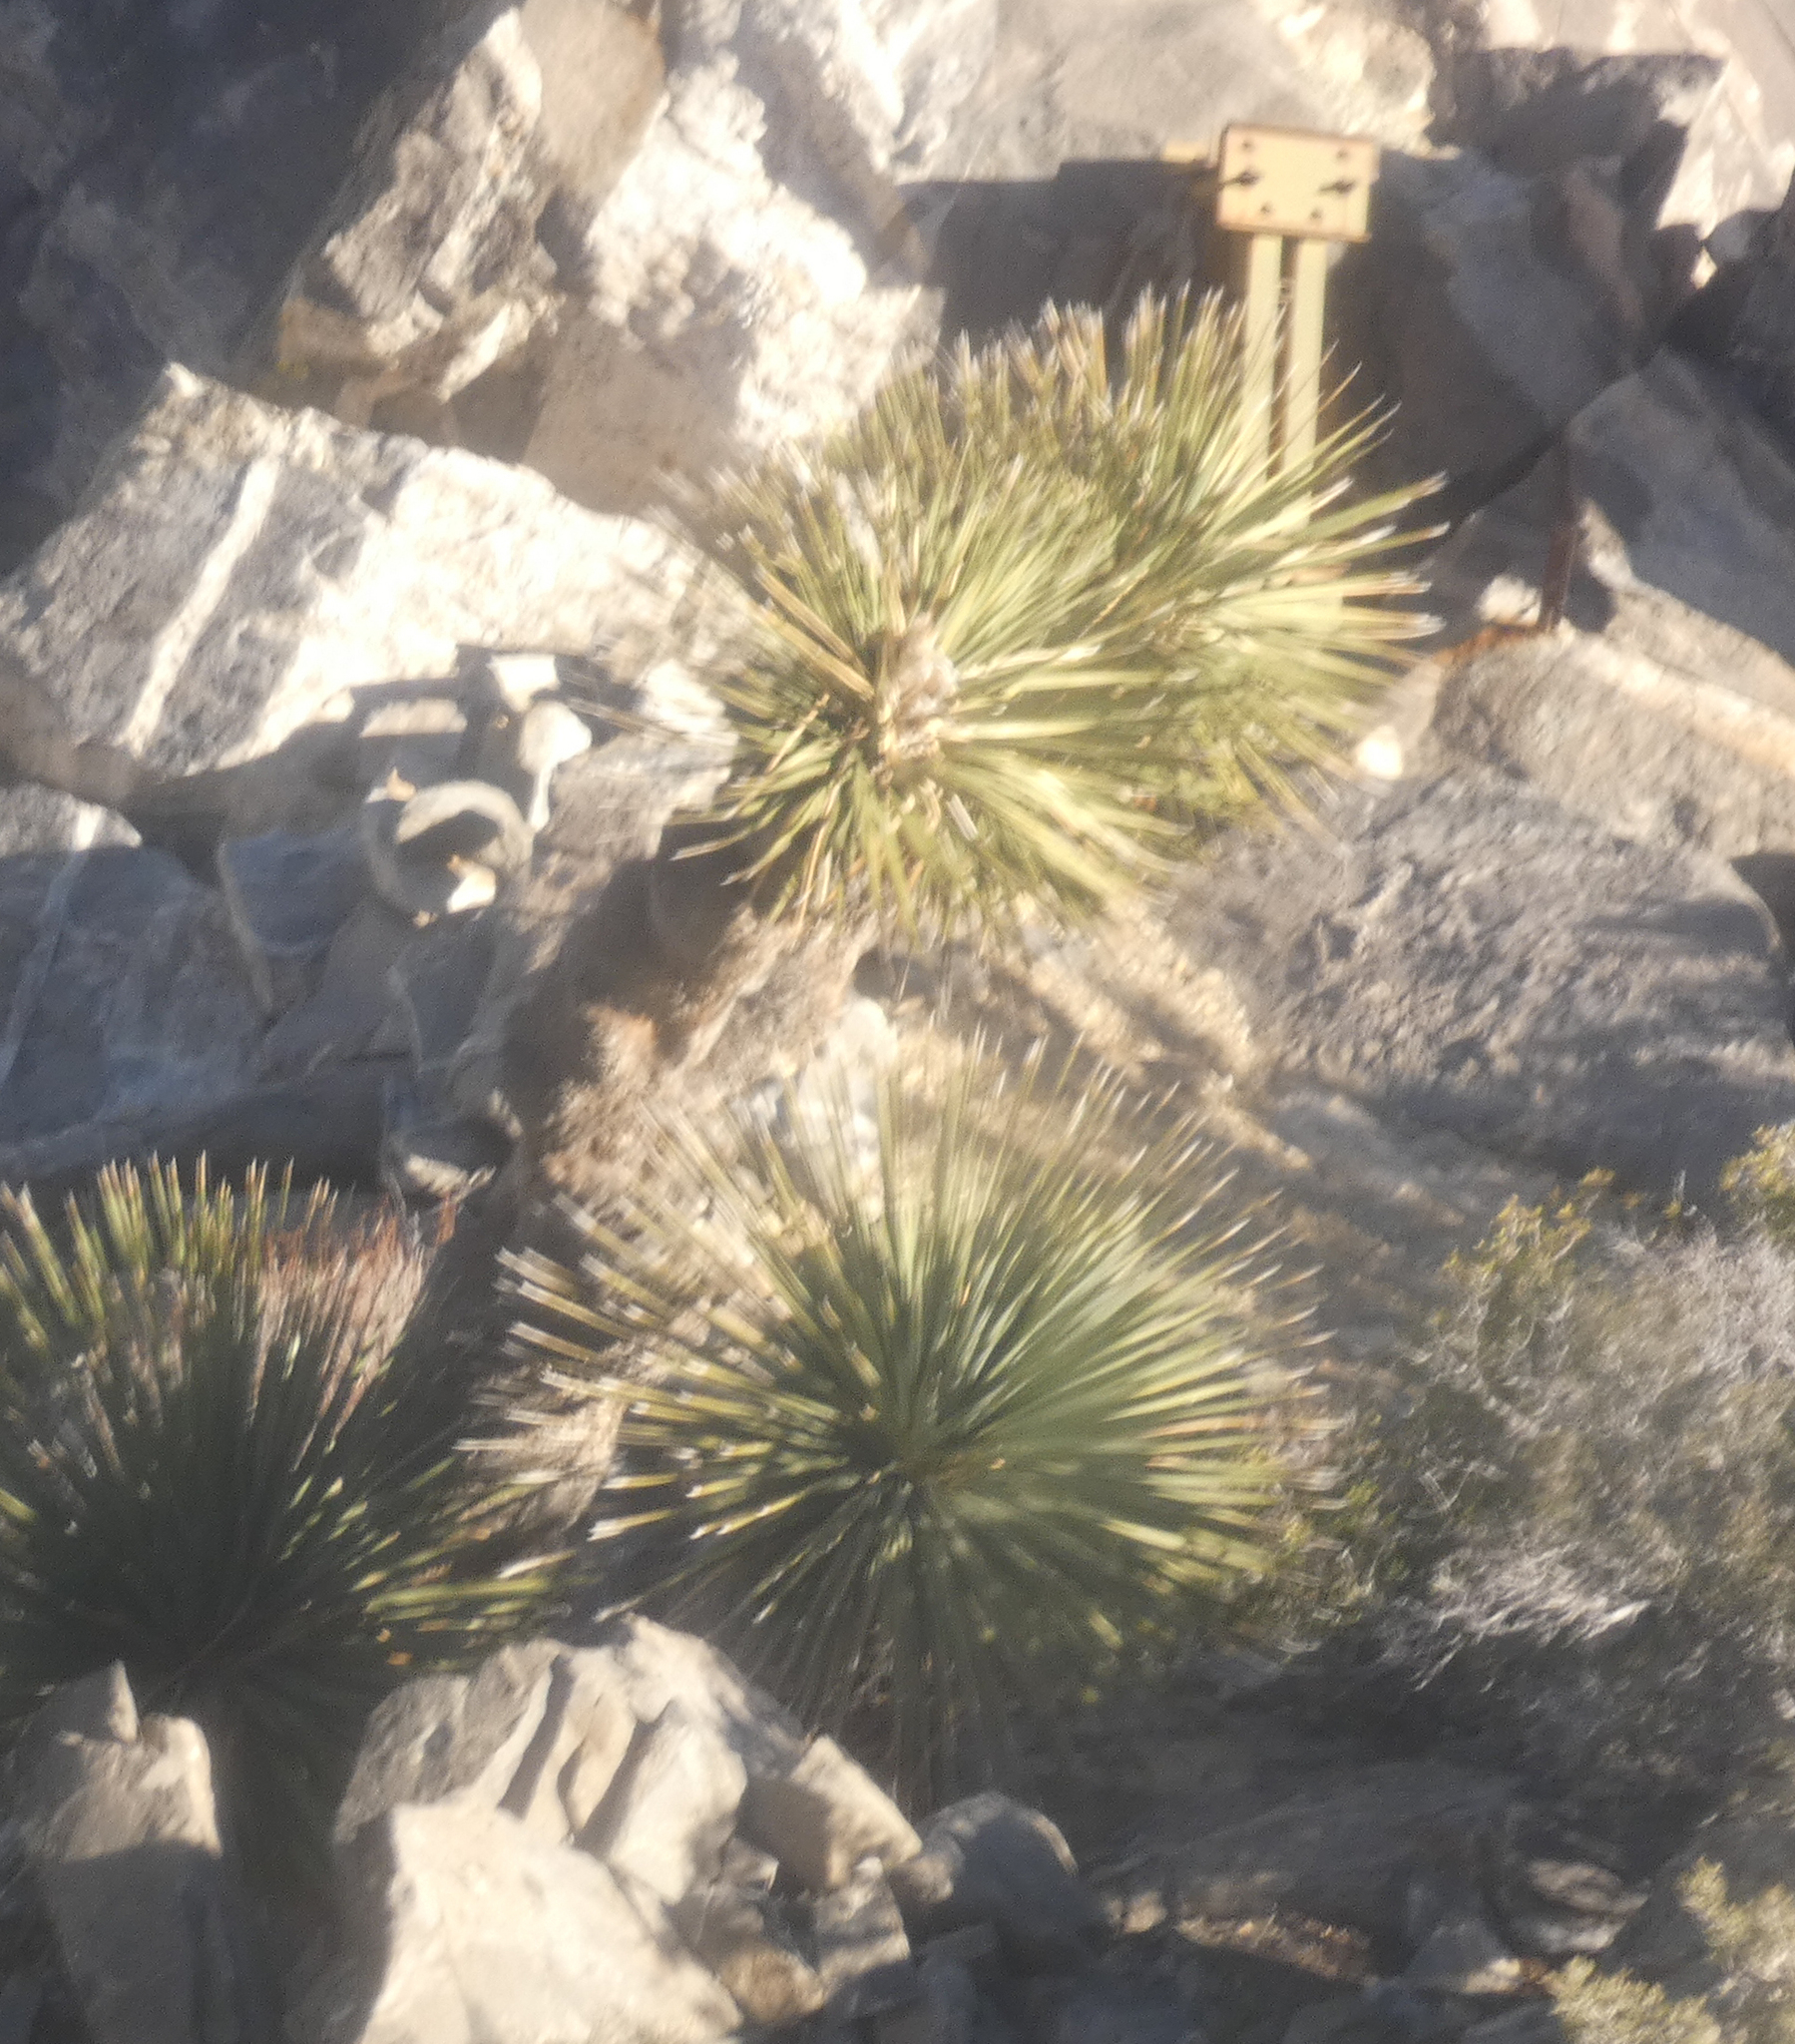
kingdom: Plantae
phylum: Tracheophyta
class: Liliopsida
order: Asparagales
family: Asparagaceae
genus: Nolina
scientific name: Nolina parryi
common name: Parry nolina
